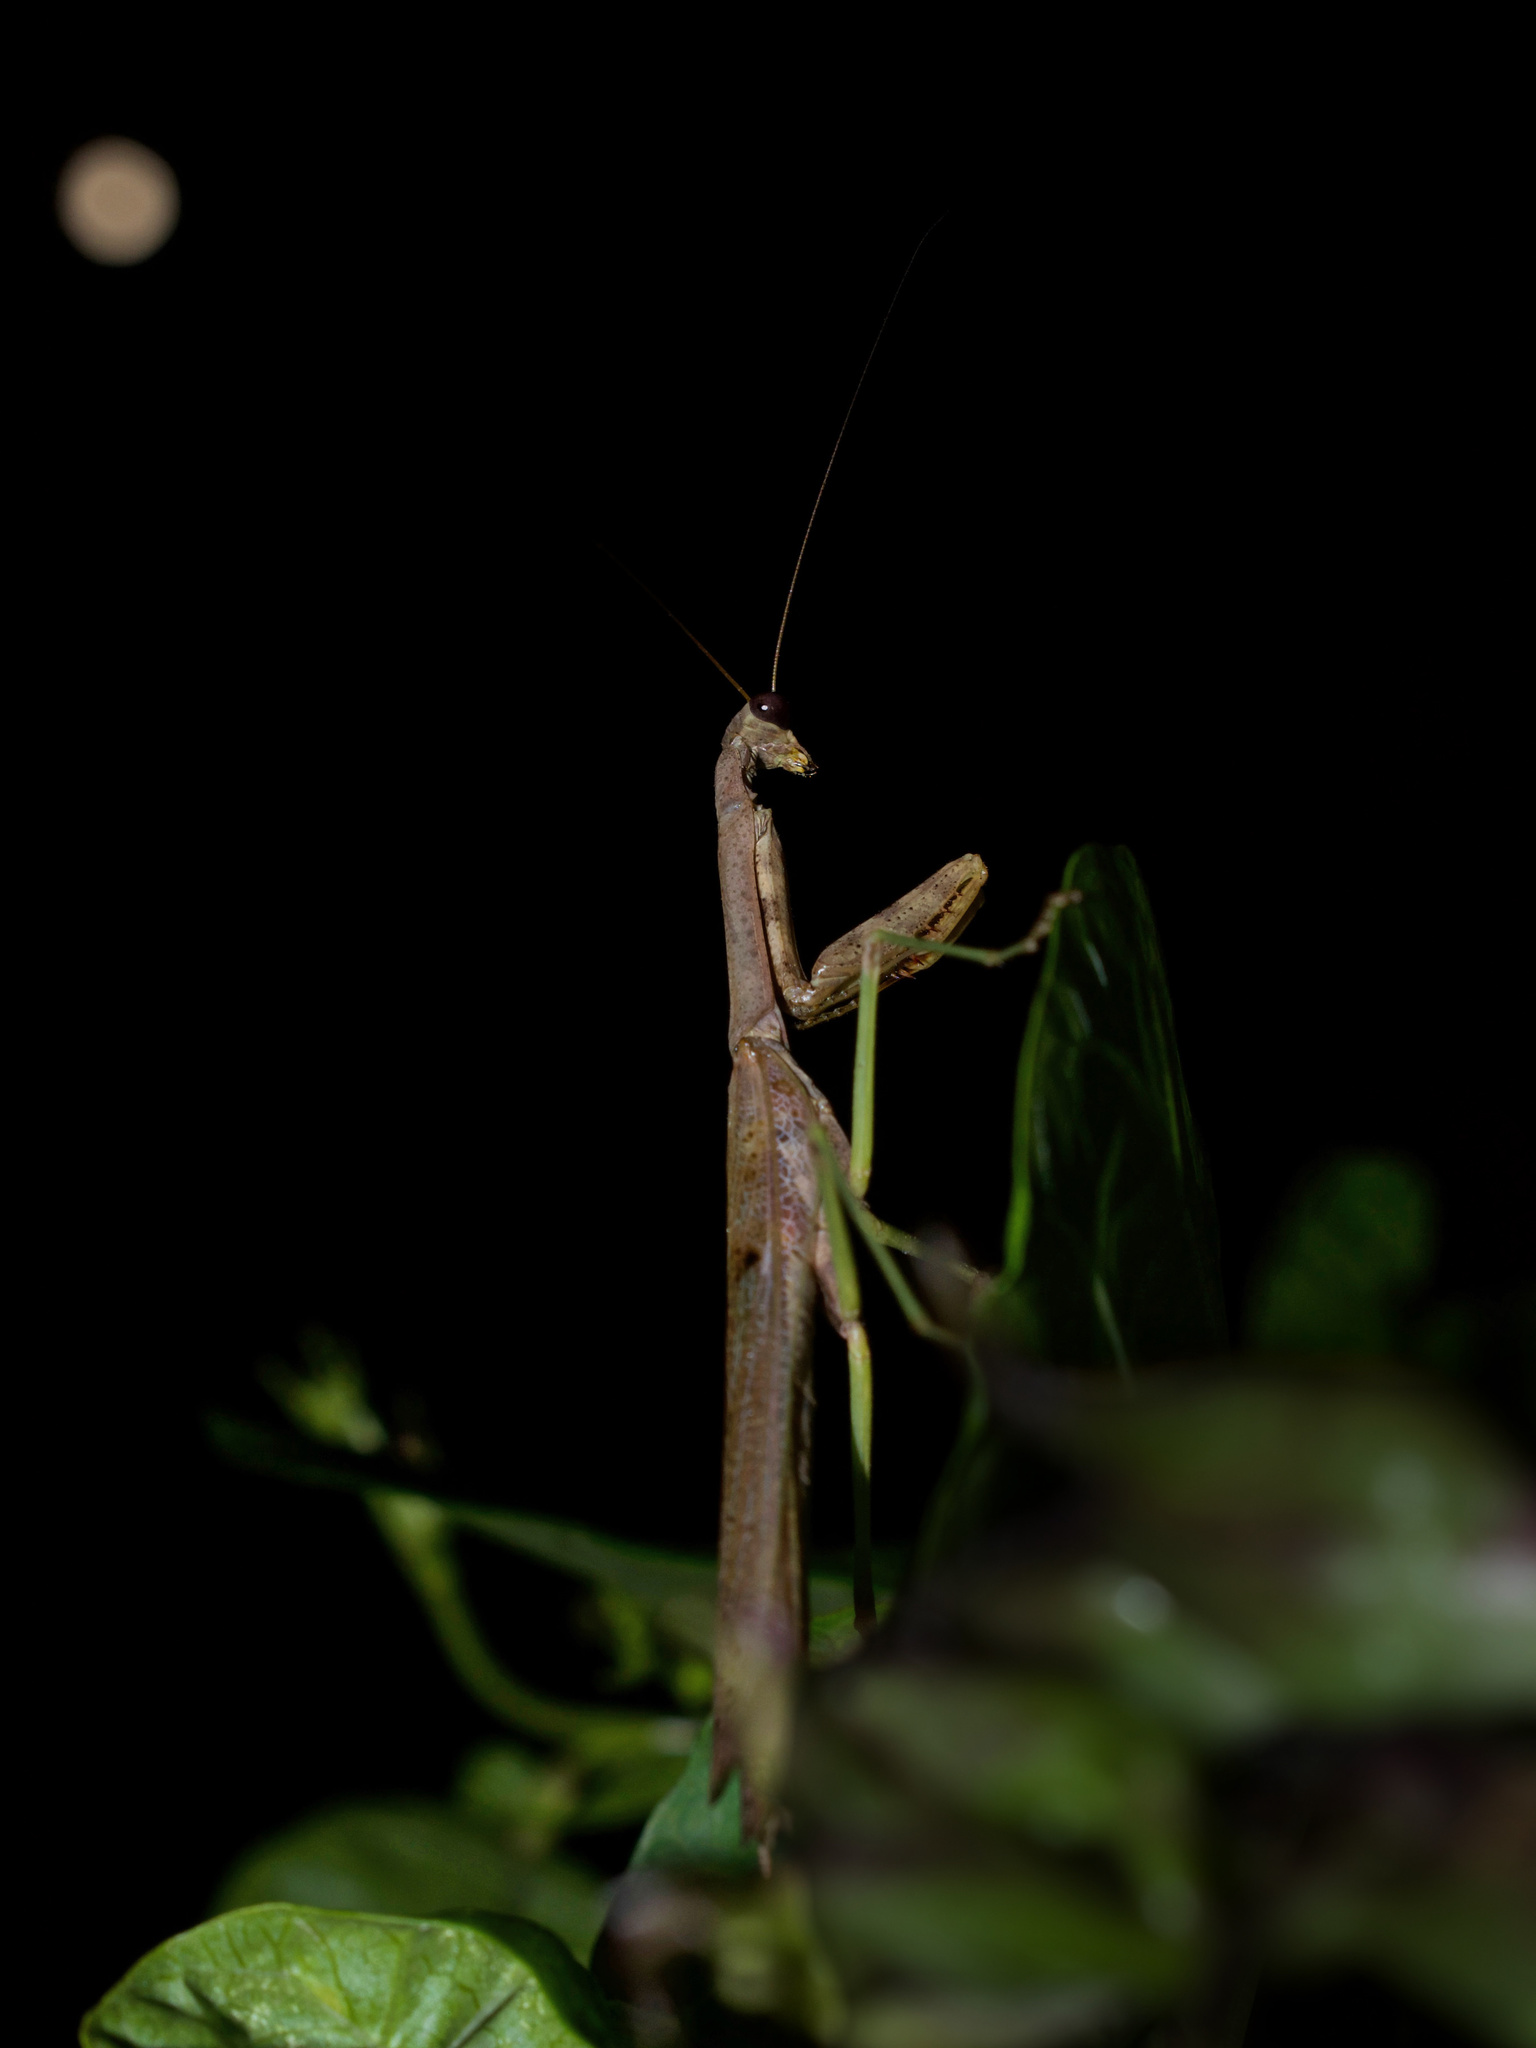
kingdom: Animalia
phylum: Arthropoda
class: Insecta
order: Mantodea
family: Mantidae
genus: Stagmomantis
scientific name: Stagmomantis carolina
